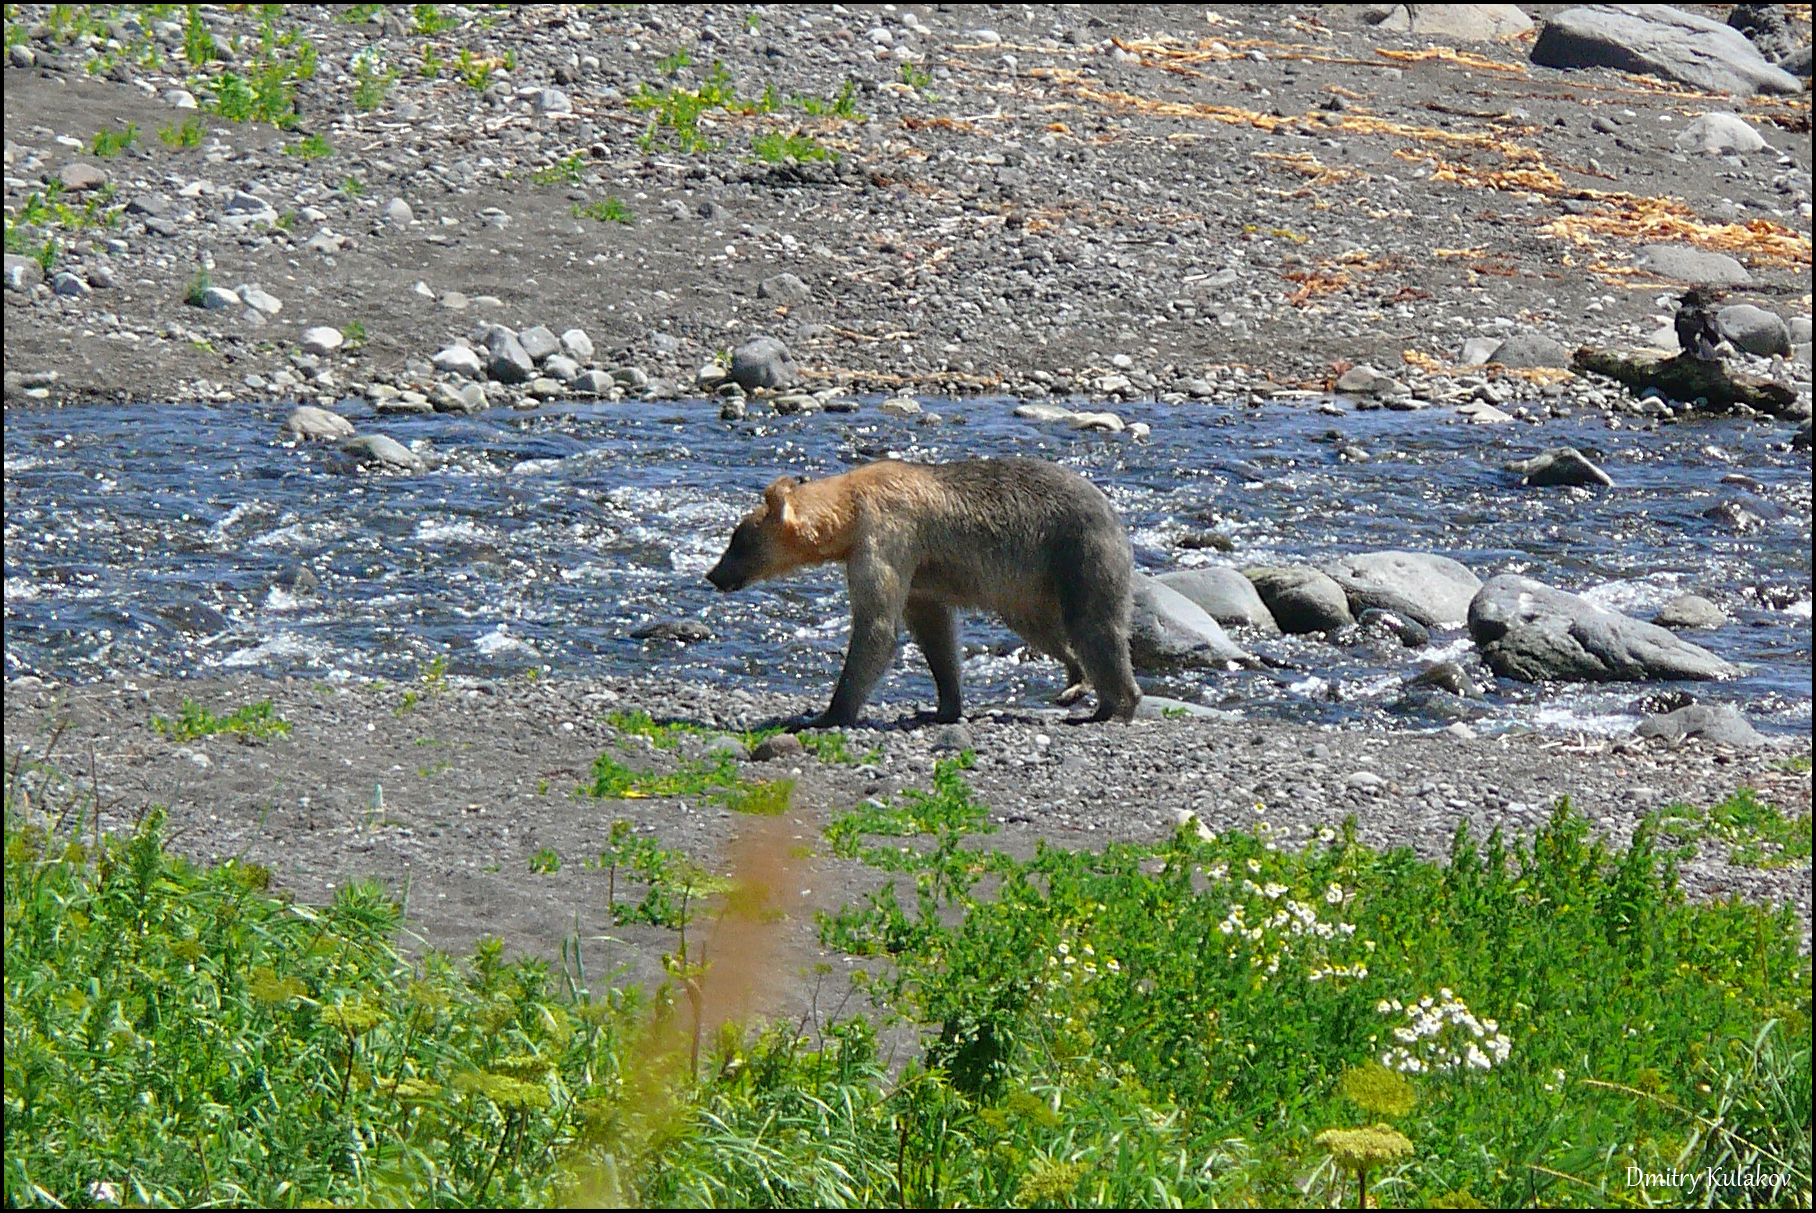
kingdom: Animalia
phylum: Chordata
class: Mammalia
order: Carnivora
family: Ursidae
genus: Ursus
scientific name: Ursus arctos
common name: Brown bear
